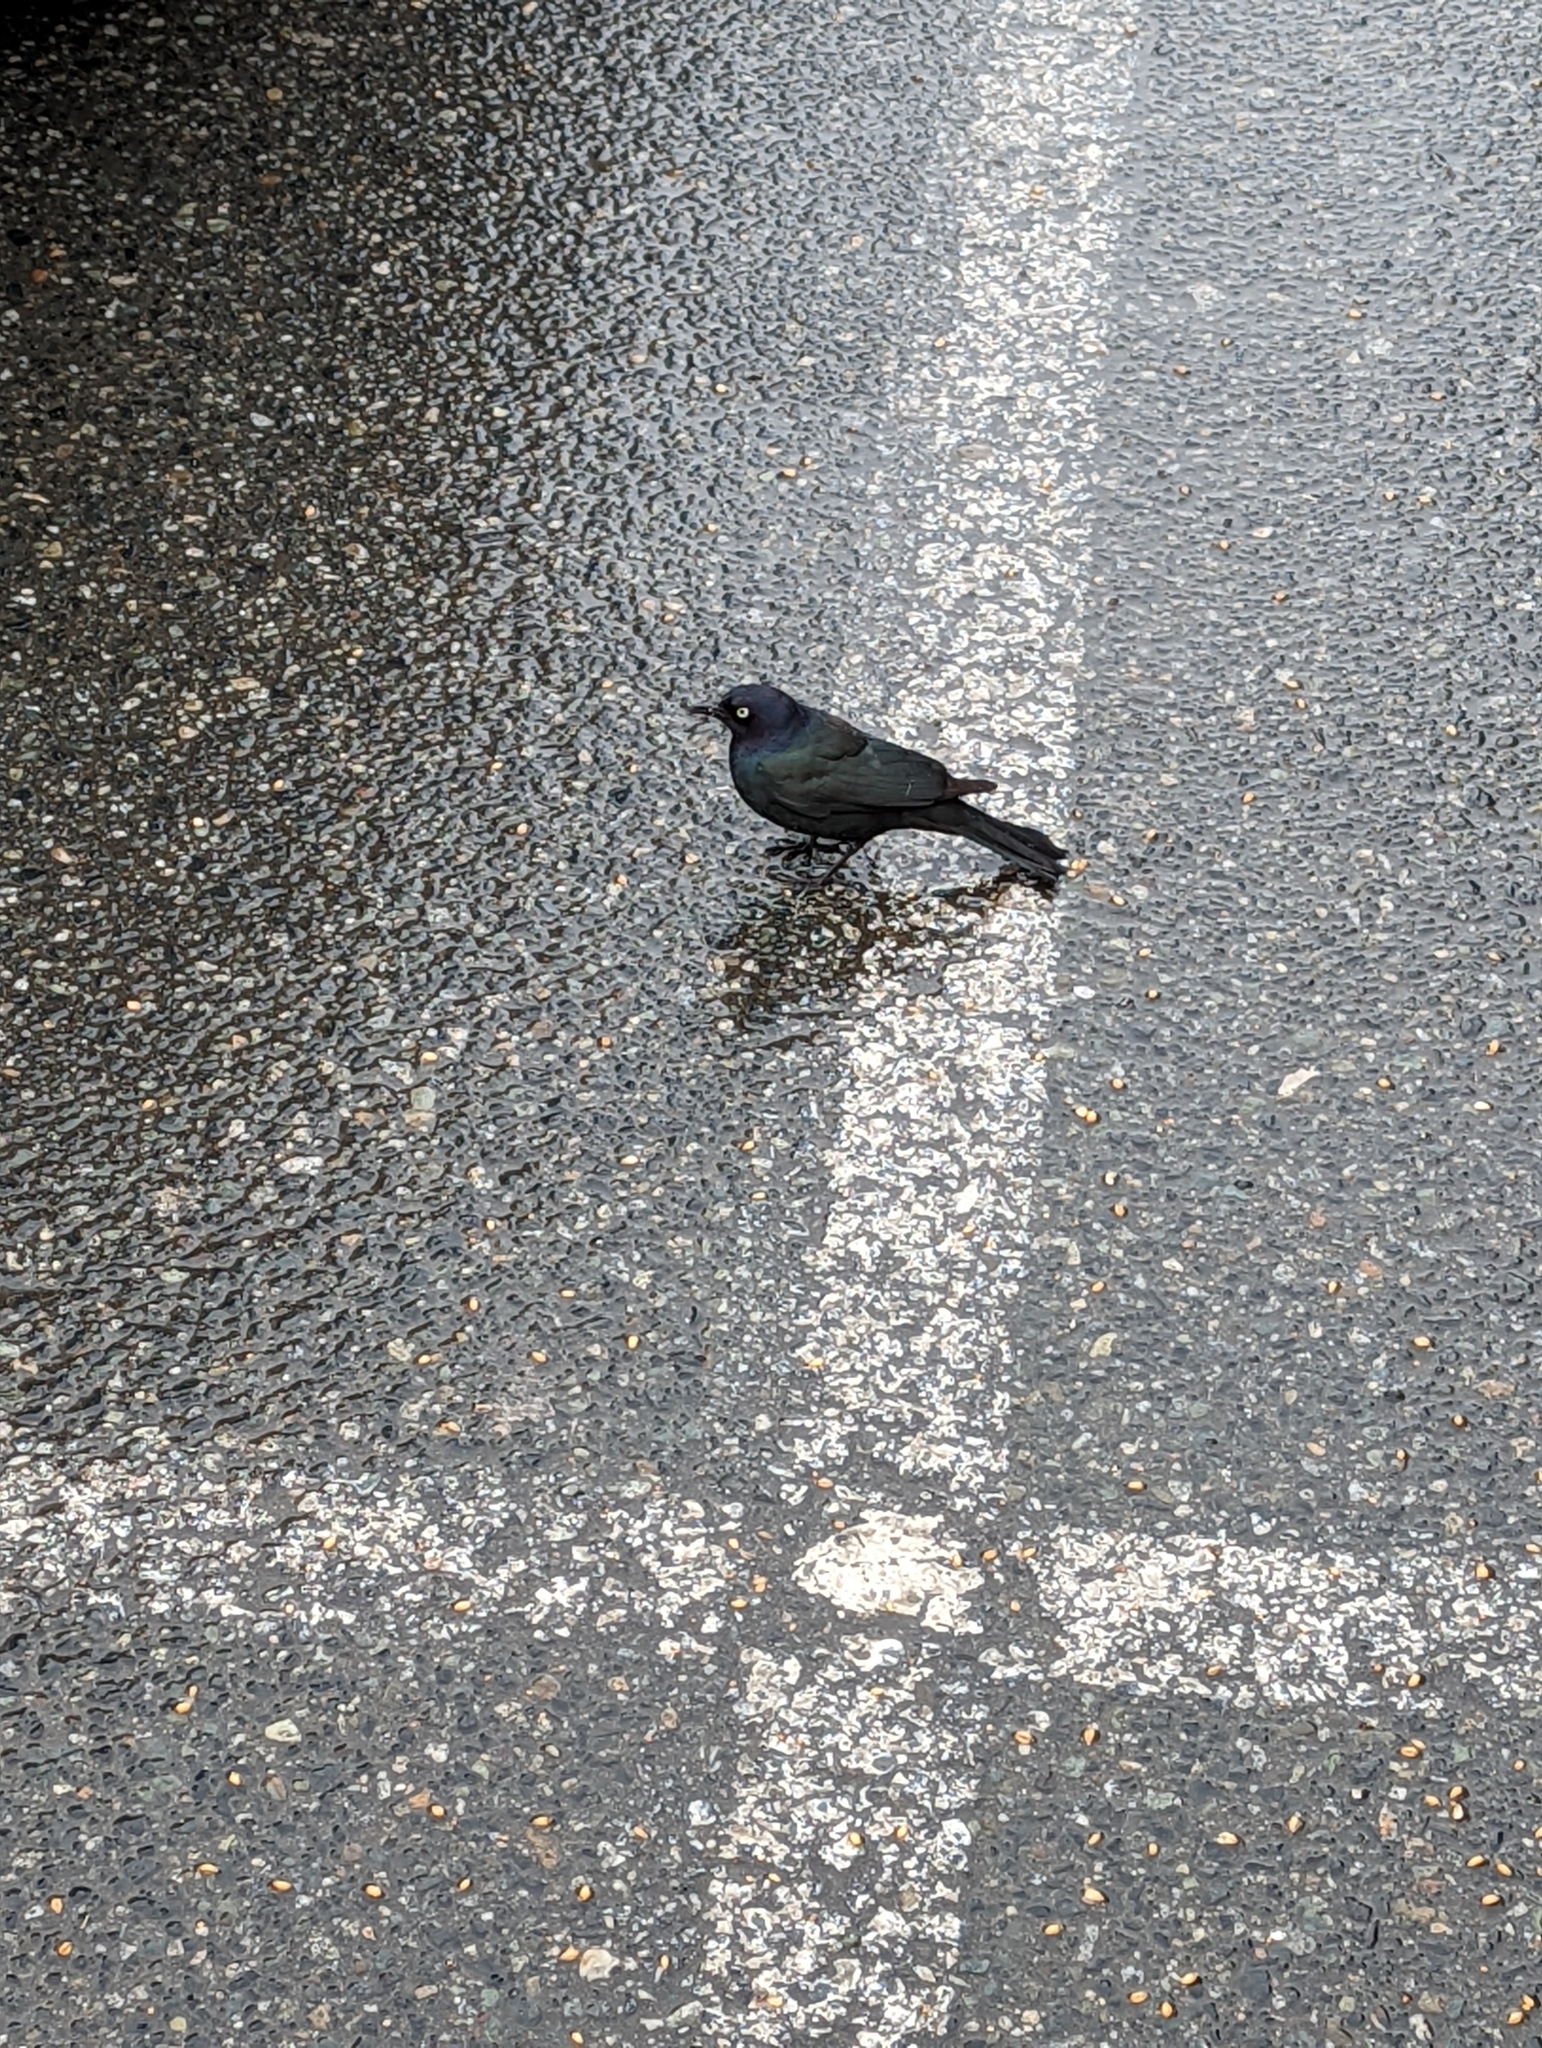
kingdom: Animalia
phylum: Chordata
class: Aves
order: Passeriformes
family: Icteridae
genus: Euphagus
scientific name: Euphagus cyanocephalus
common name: Brewer's blackbird
